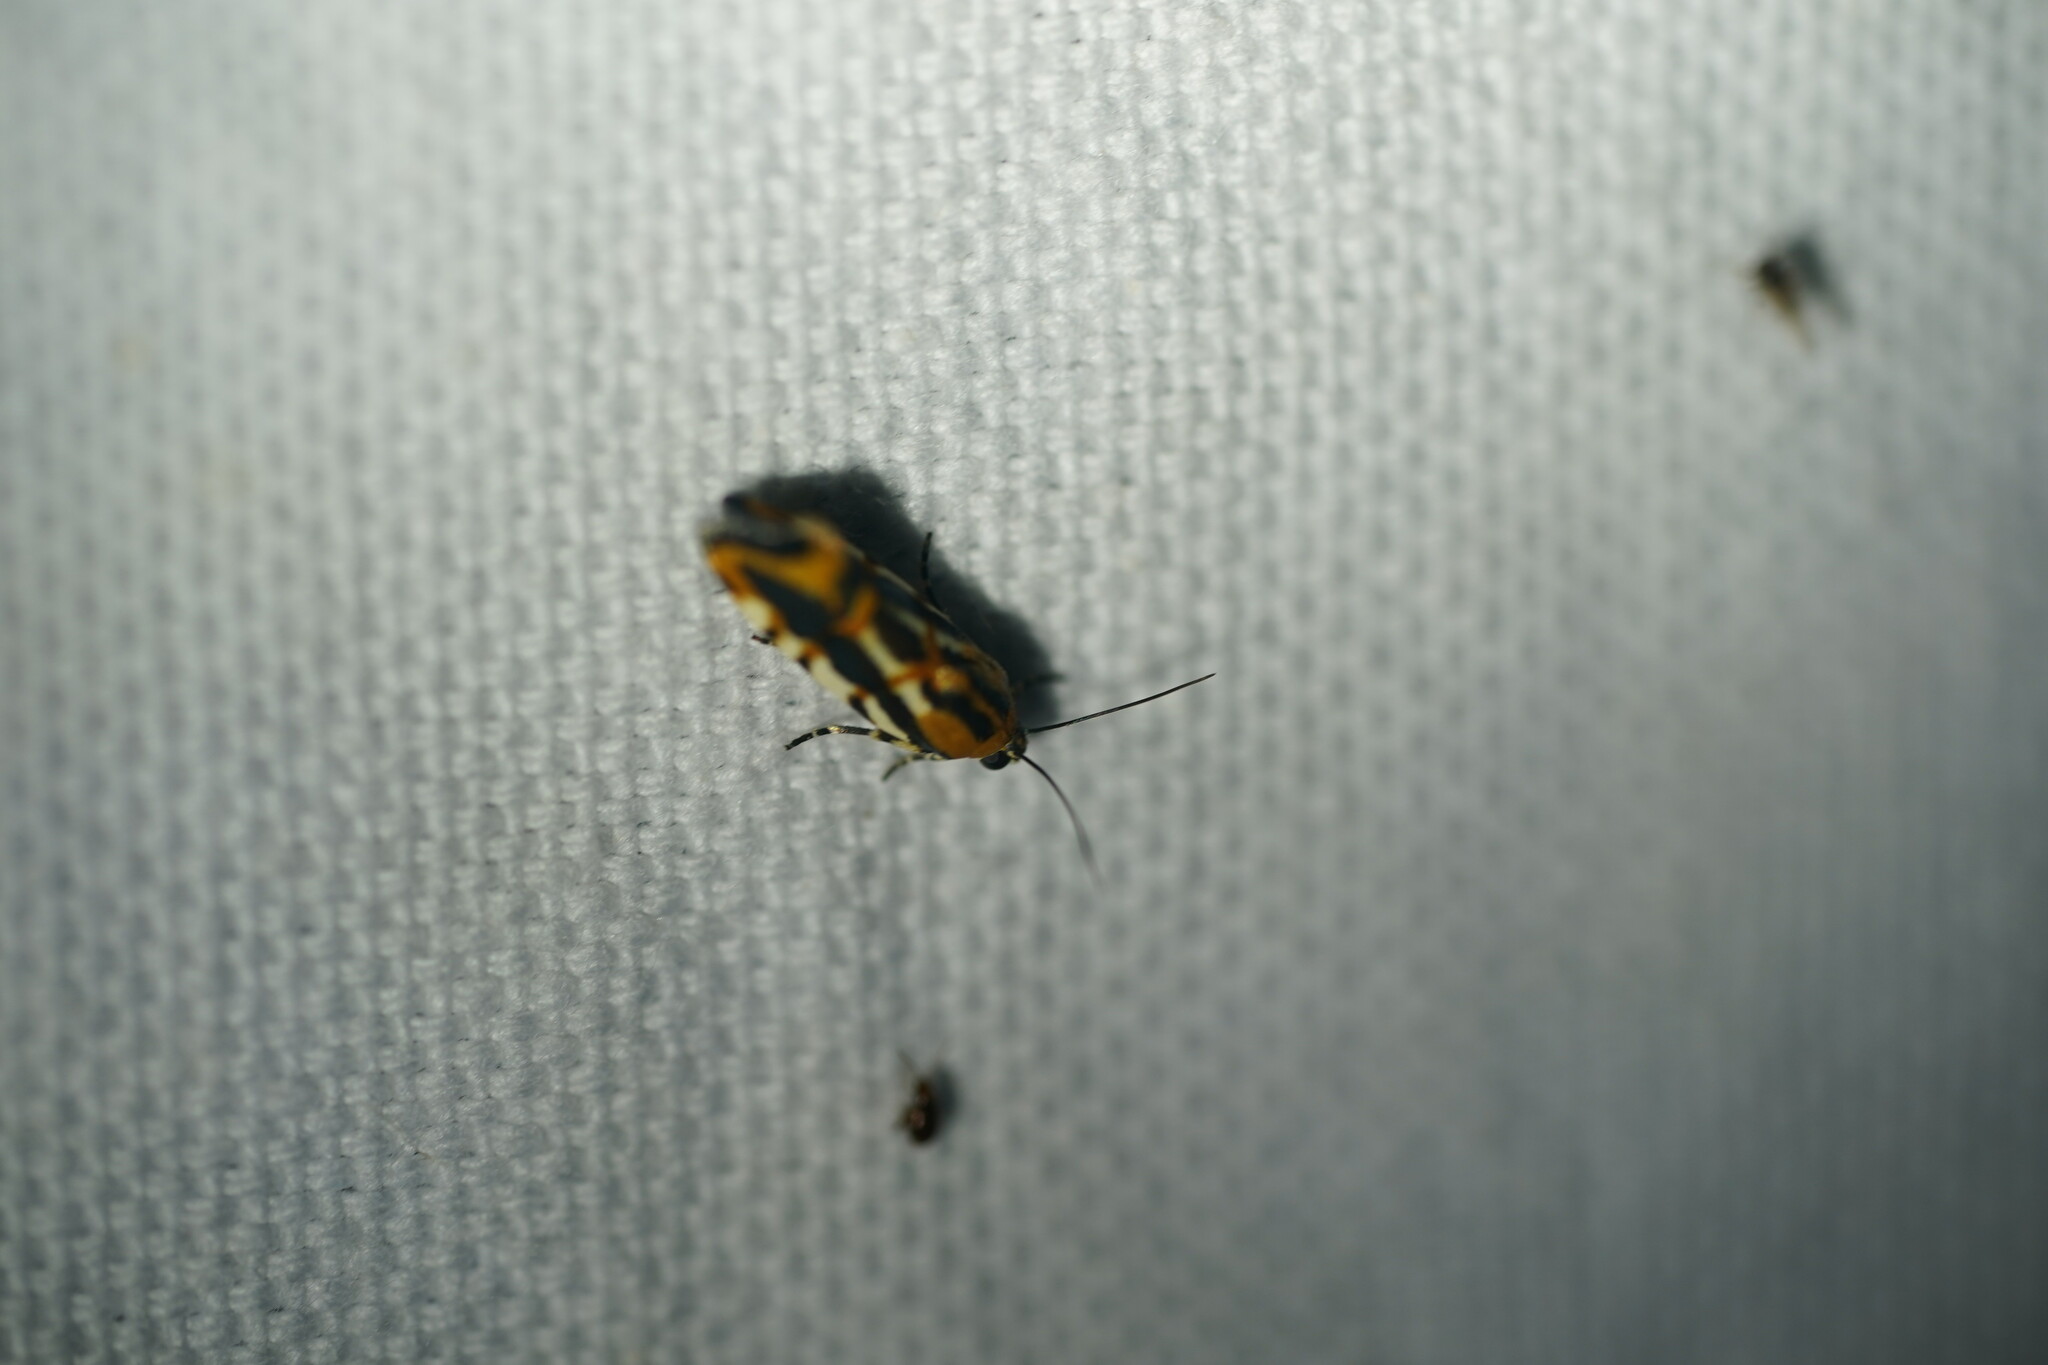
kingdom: Animalia
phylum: Arthropoda
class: Insecta
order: Lepidoptera
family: Noctuidae
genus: Acontia
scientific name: Acontia leo
